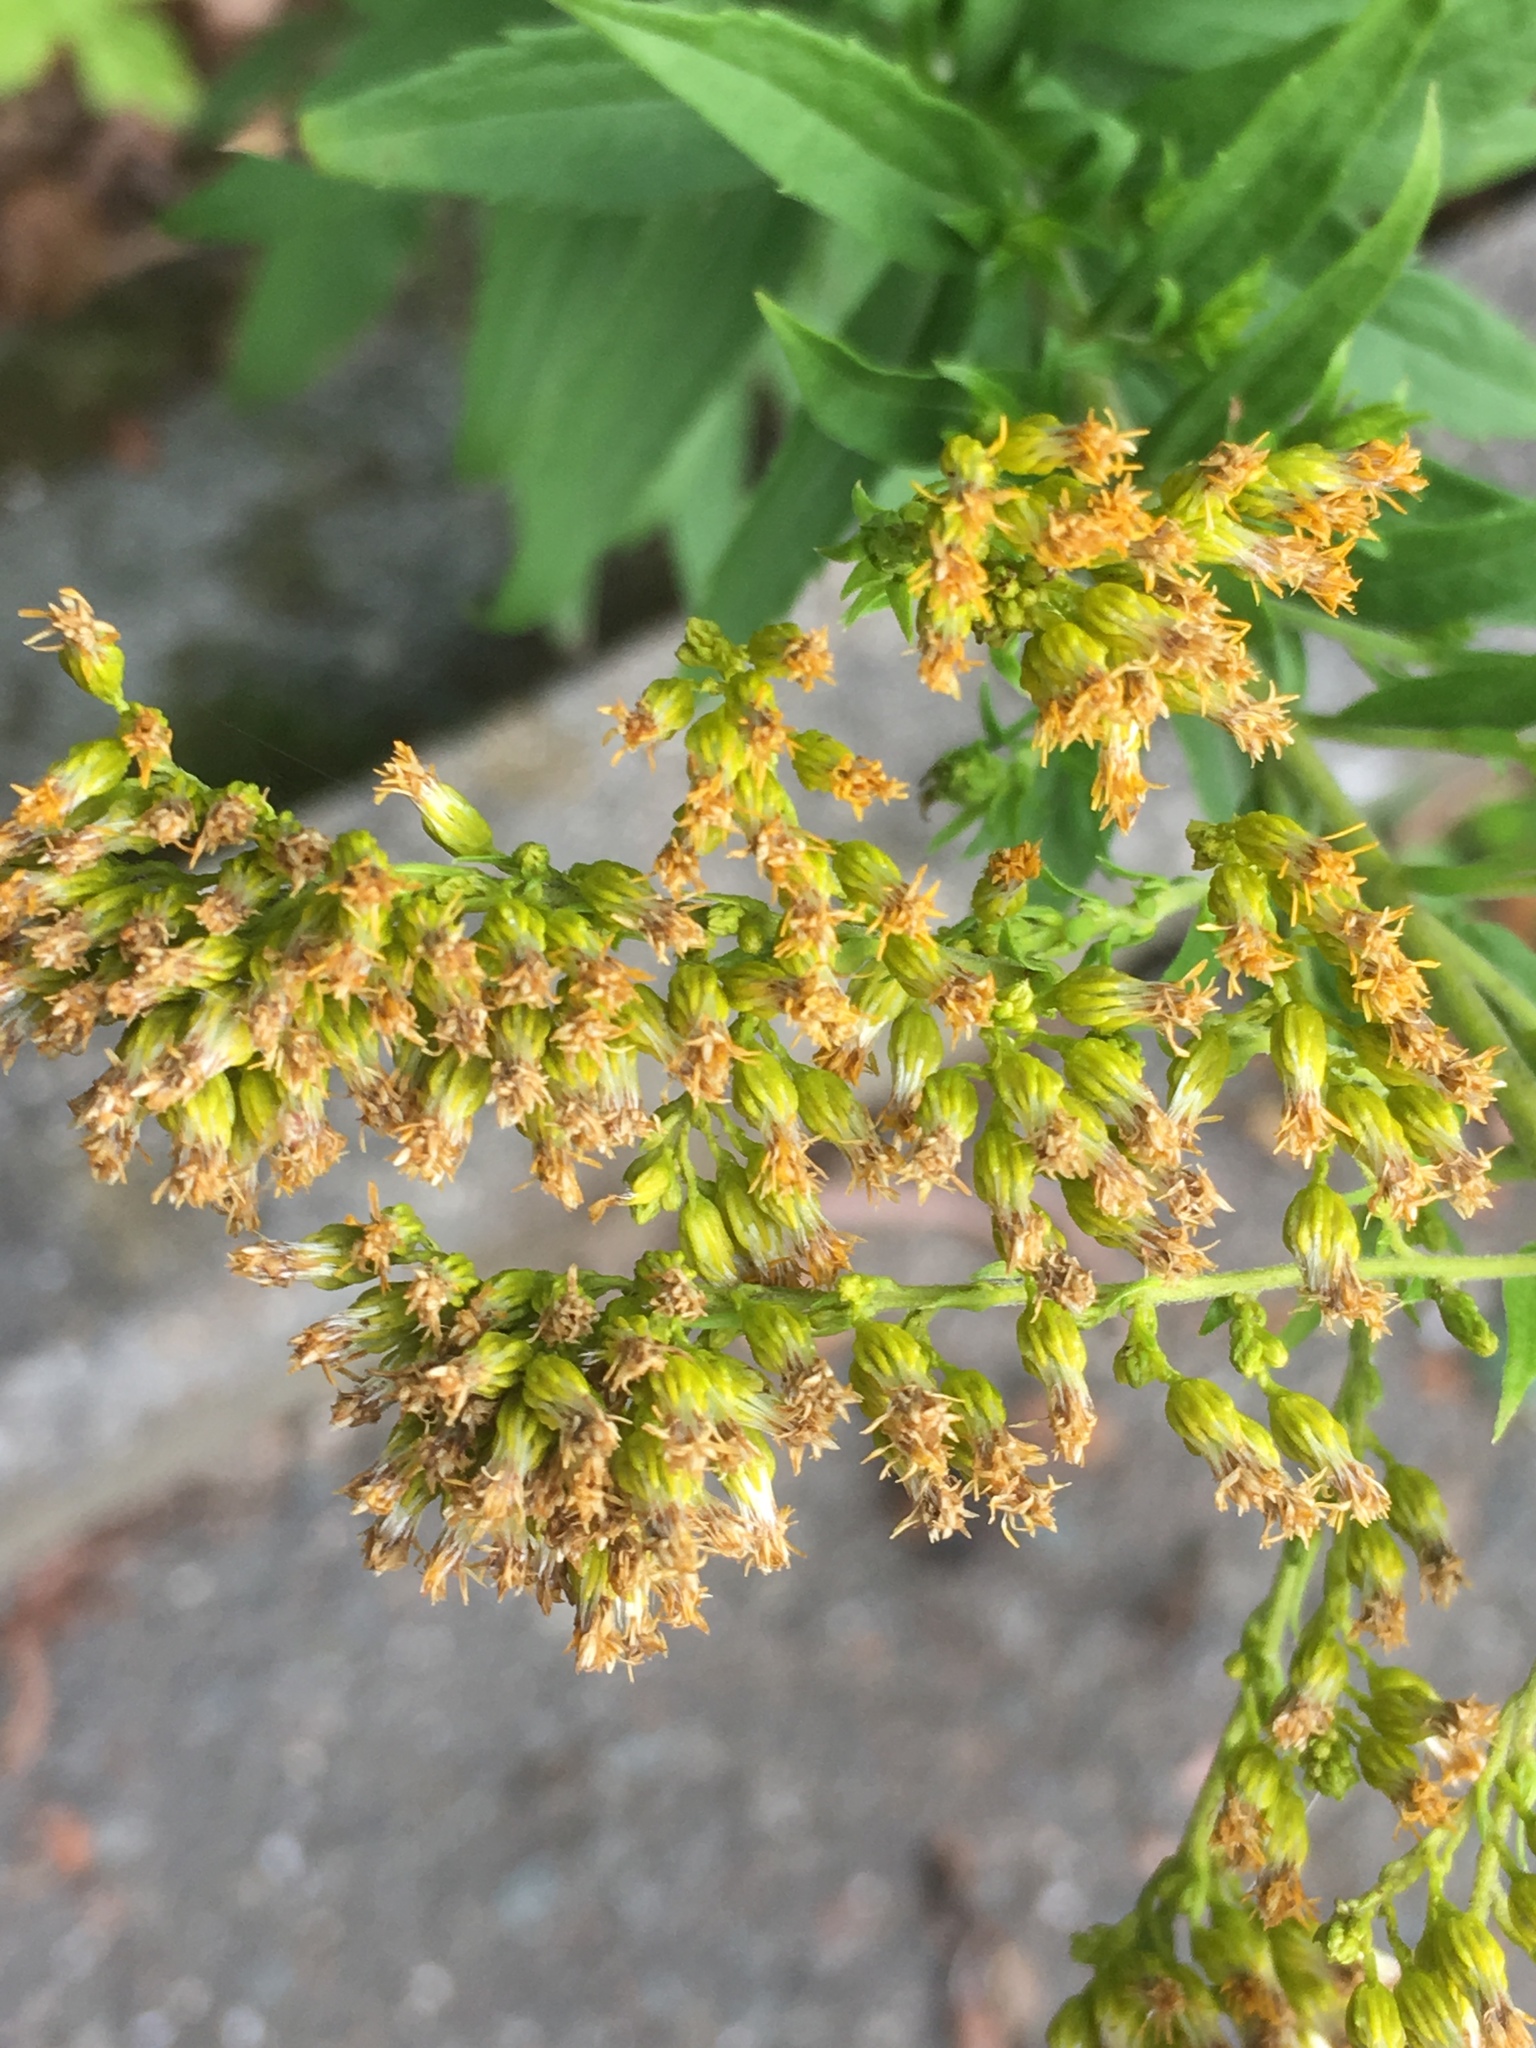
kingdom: Plantae
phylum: Tracheophyta
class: Magnoliopsida
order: Asterales
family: Asteraceae
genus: Solidago
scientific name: Solidago gigantea
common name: Giant goldenrod
